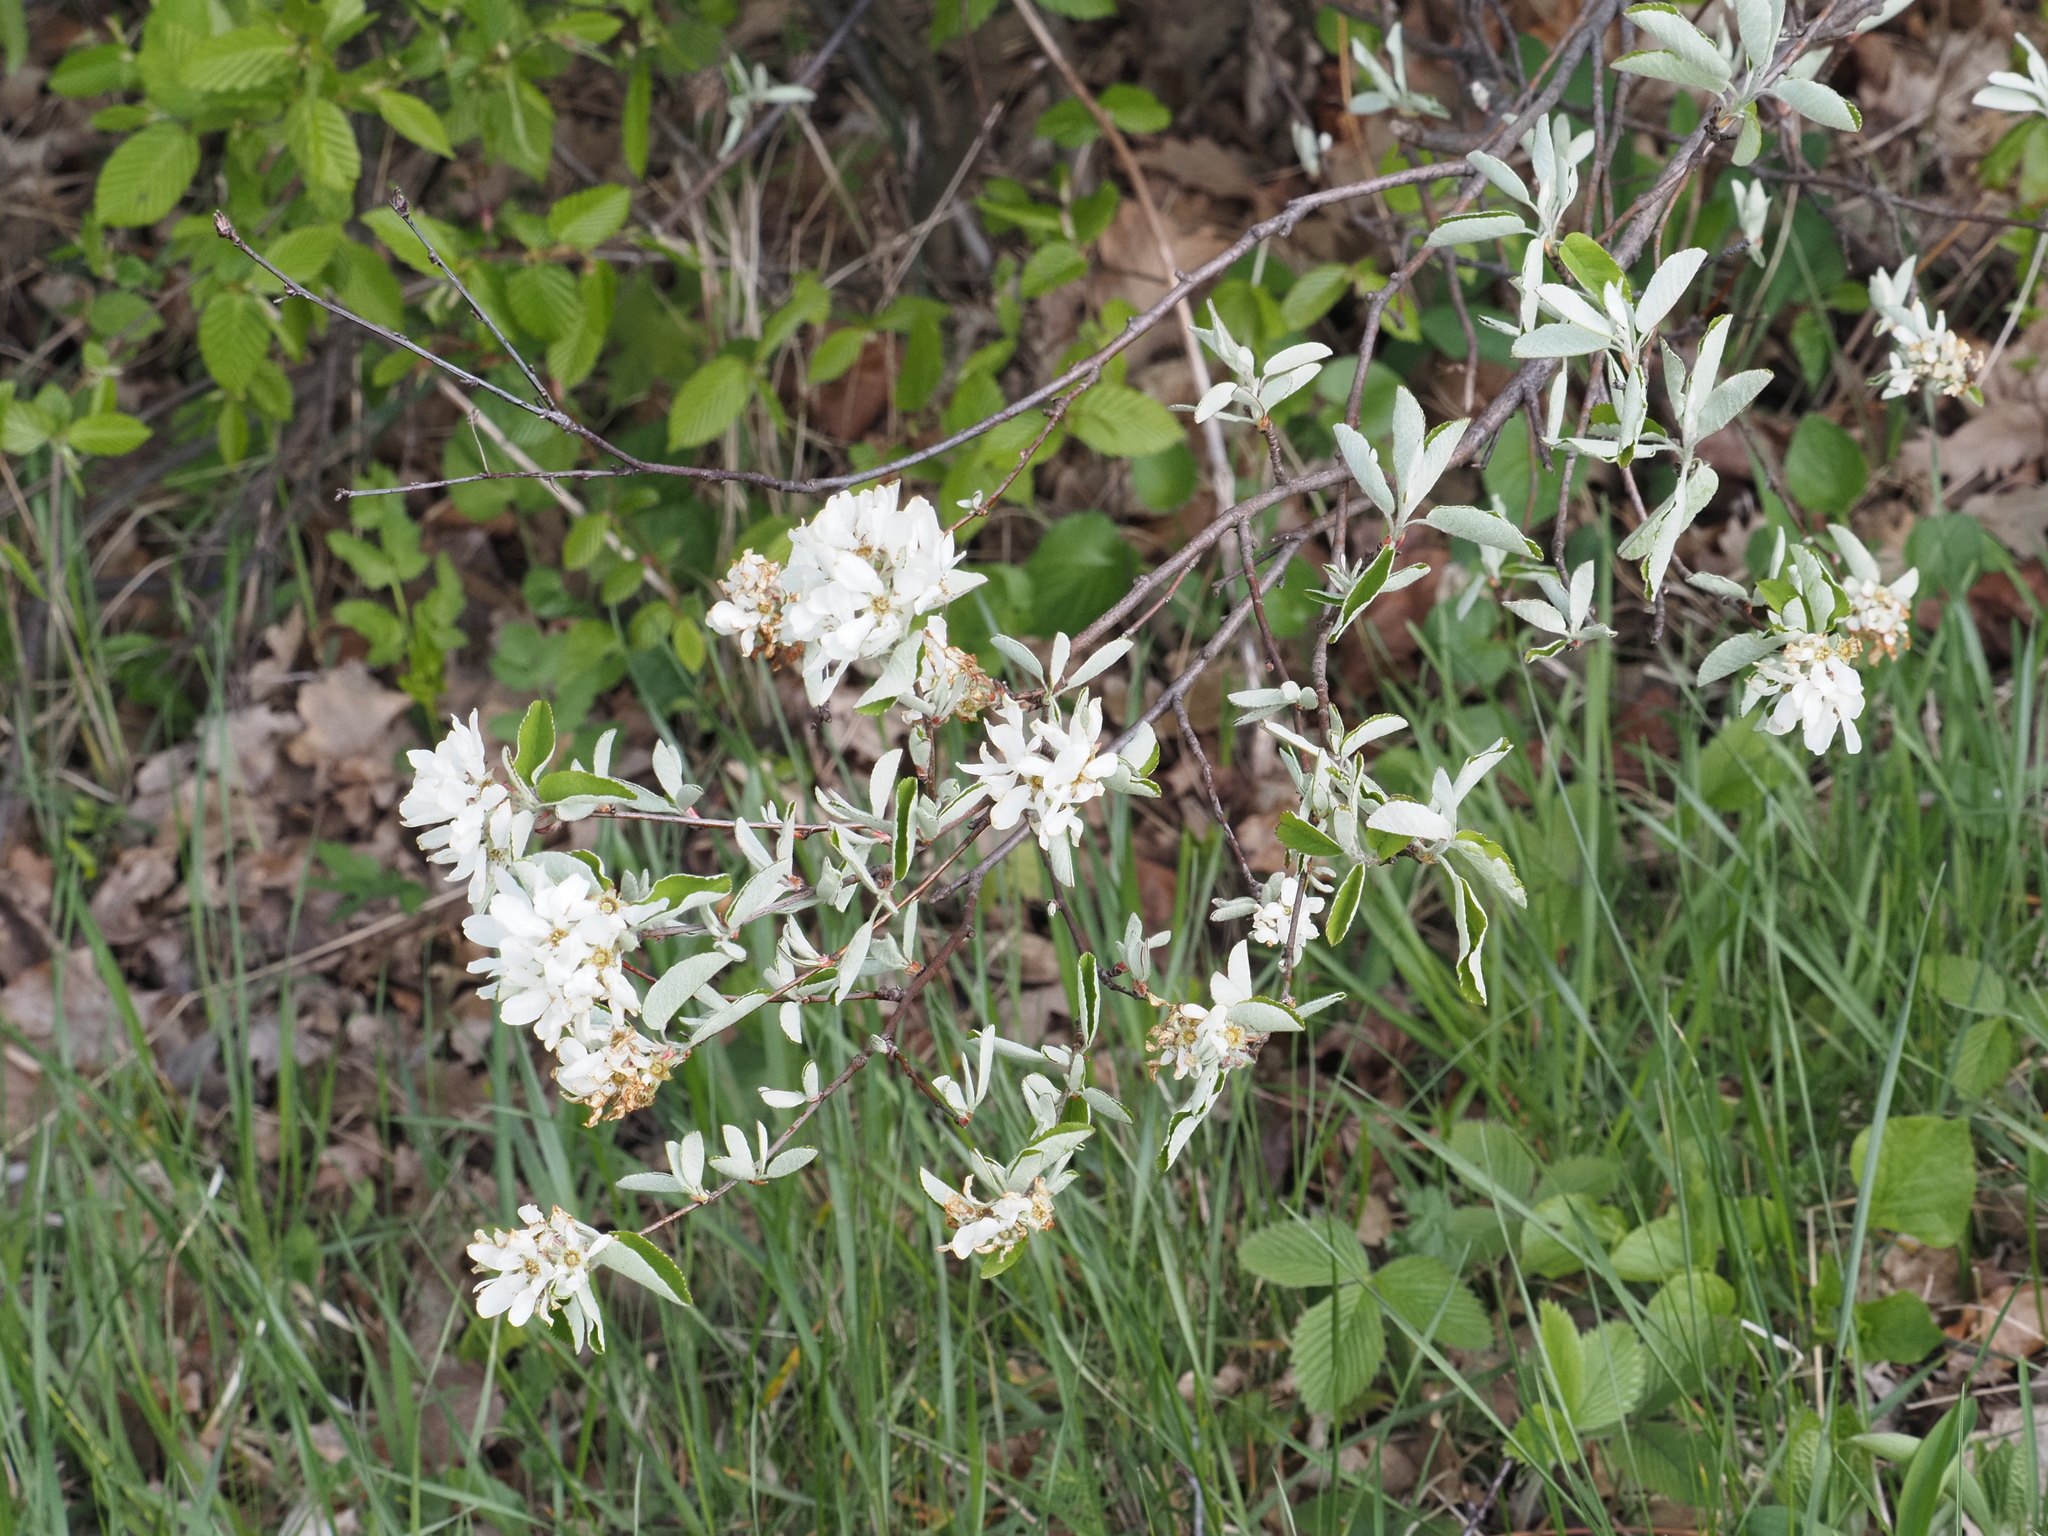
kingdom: Plantae
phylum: Tracheophyta
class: Magnoliopsida
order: Rosales
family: Rosaceae
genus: Amelanchier
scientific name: Amelanchier ovalis
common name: Serviceberry
